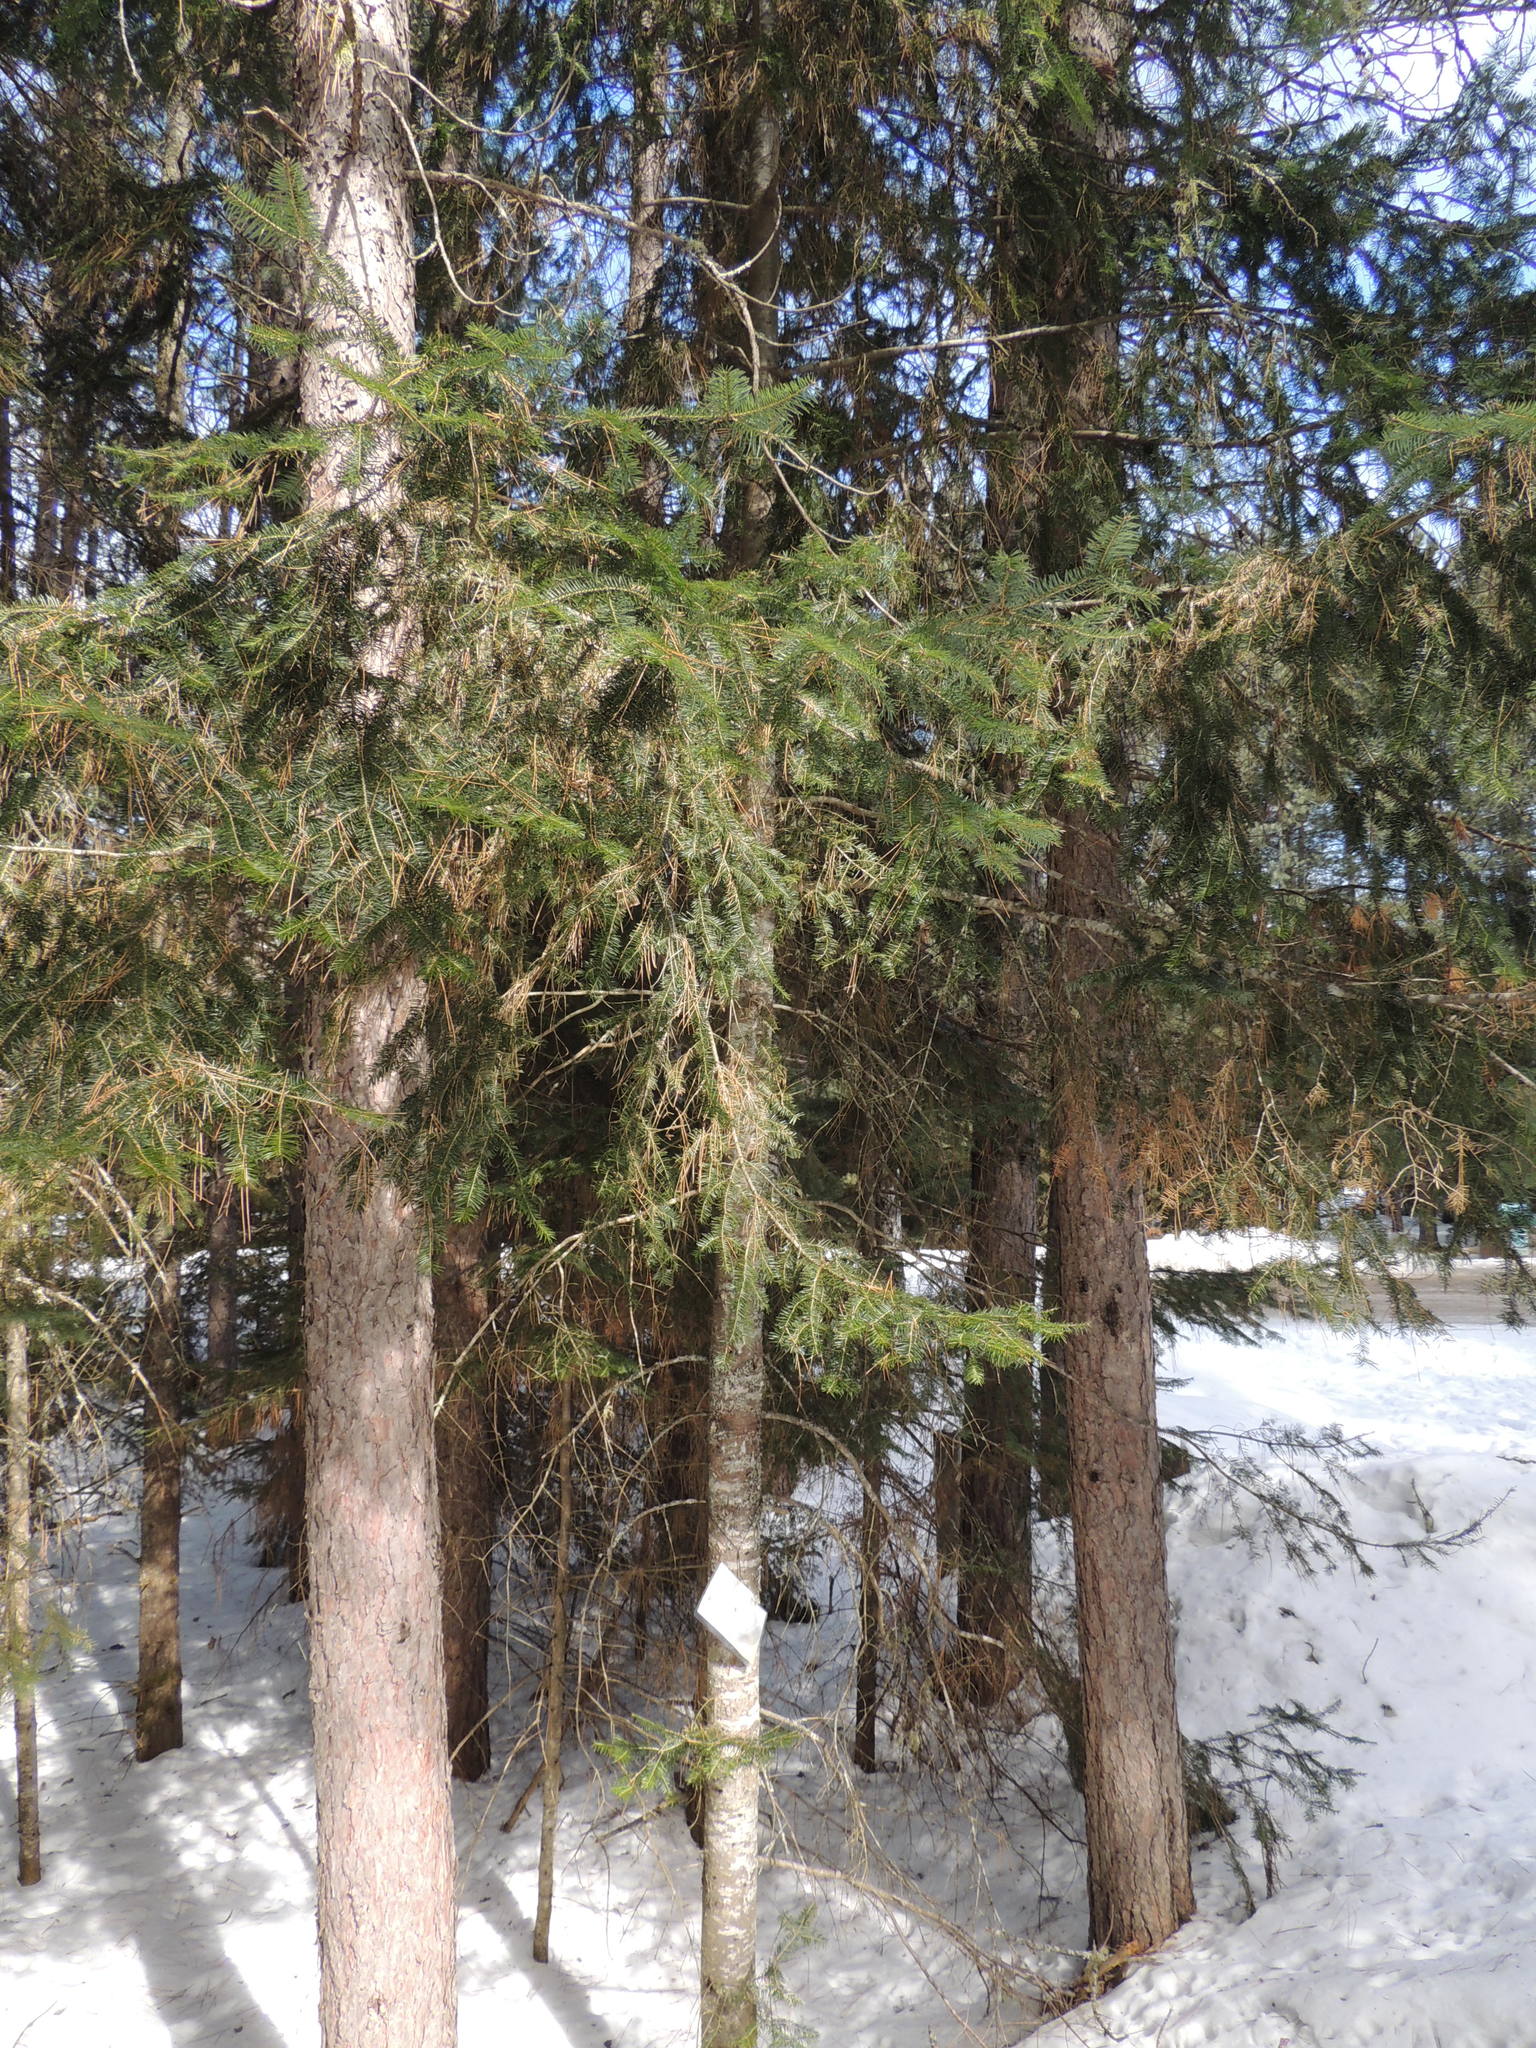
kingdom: Plantae
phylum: Tracheophyta
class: Pinopsida
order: Pinales
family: Pinaceae
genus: Abies
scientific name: Abies balsamea
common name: Balsam fir
